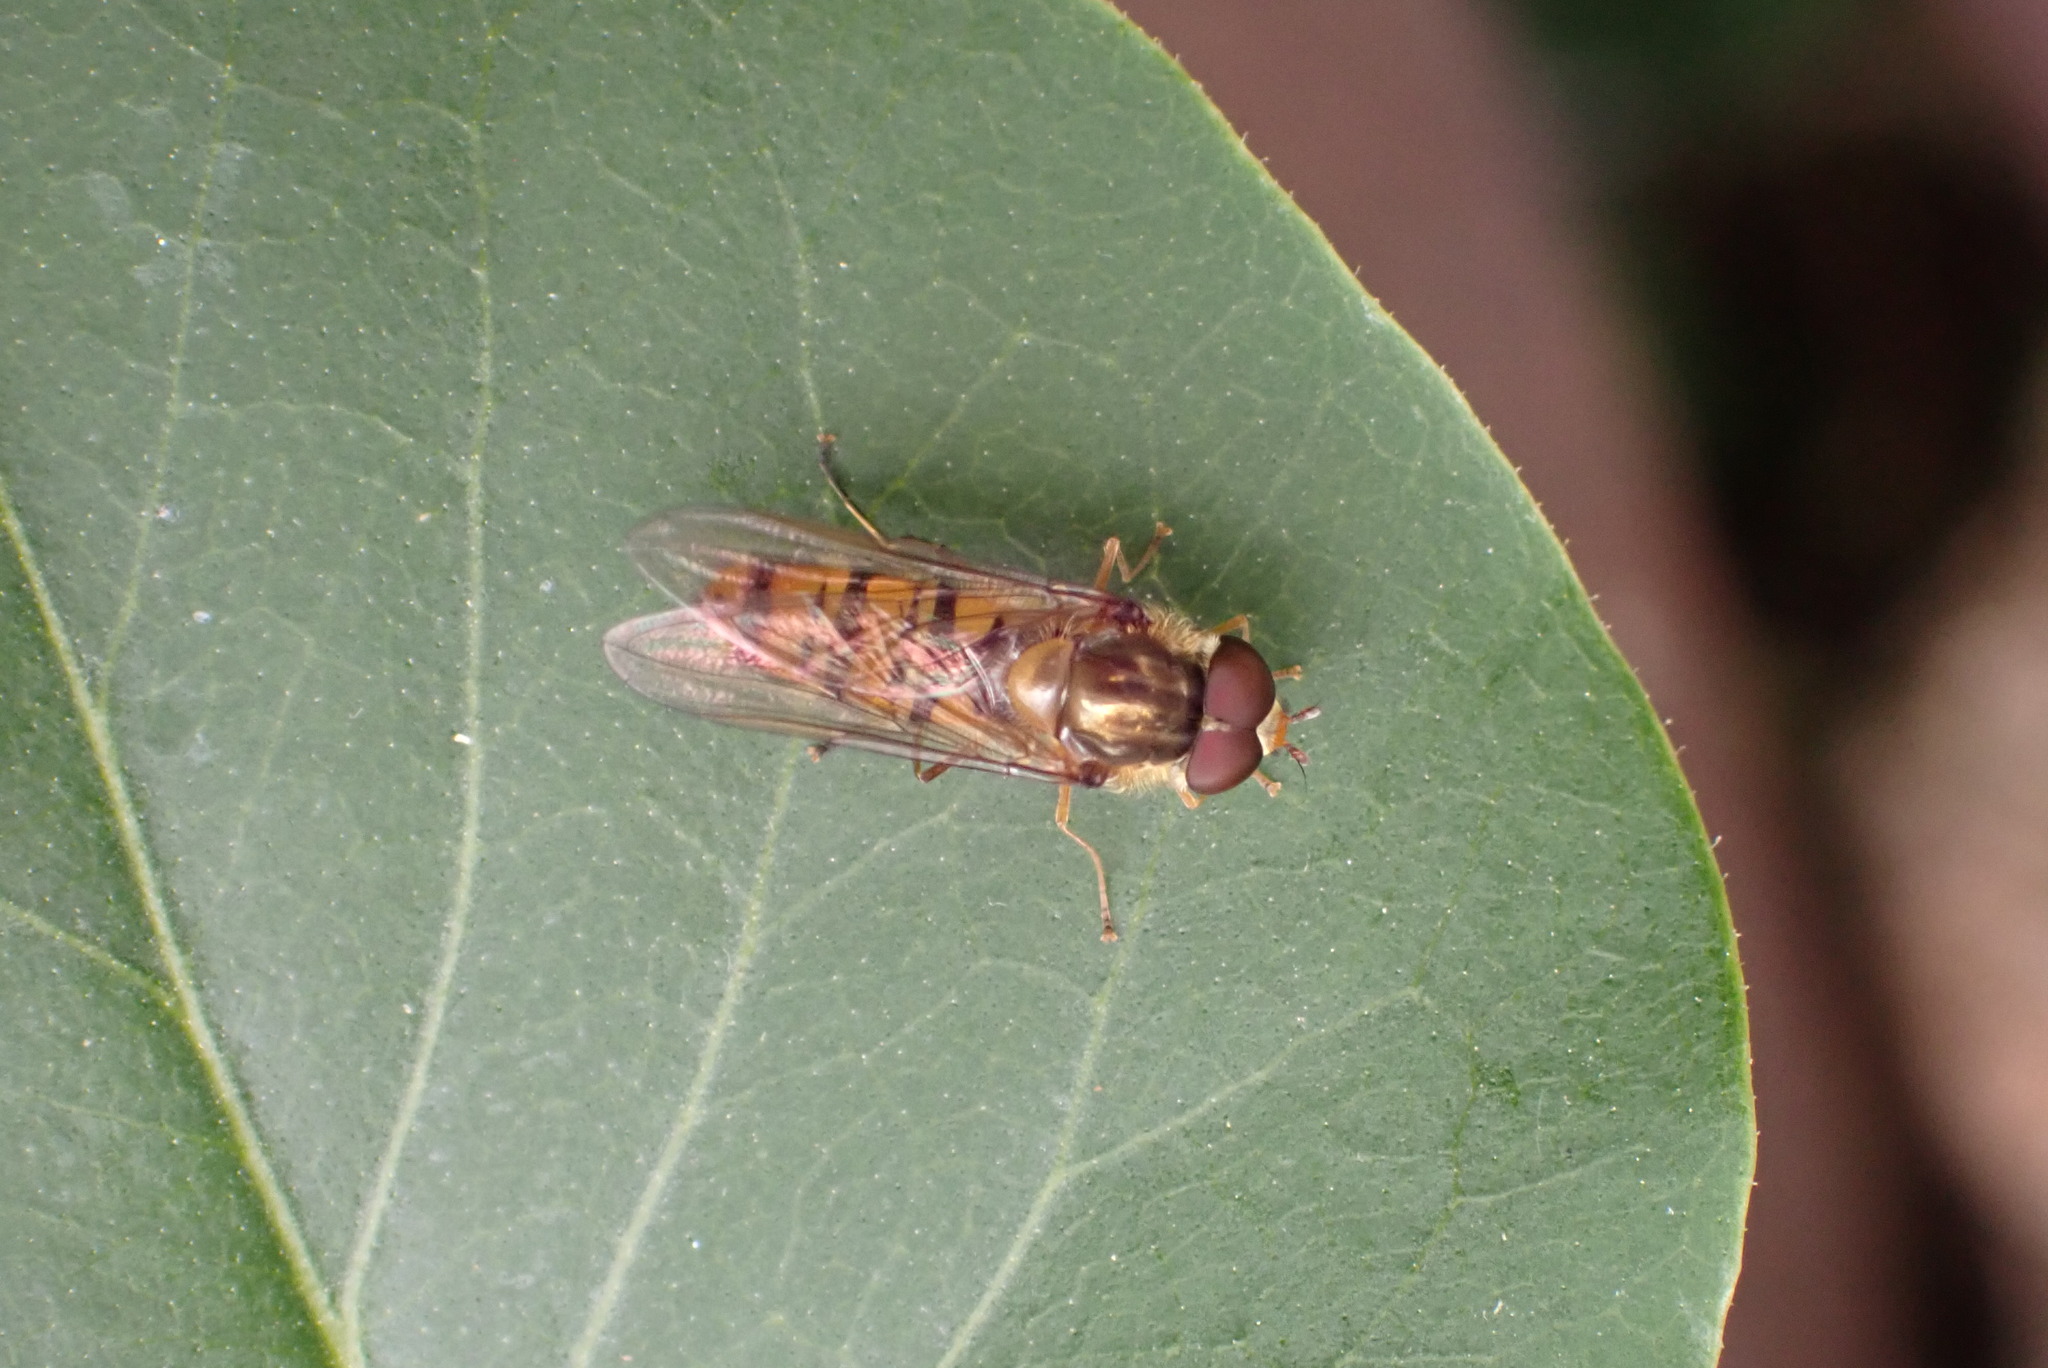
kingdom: Animalia
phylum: Arthropoda
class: Insecta
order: Diptera
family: Syrphidae
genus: Episyrphus
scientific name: Episyrphus balteatus
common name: Marmalade hoverfly
